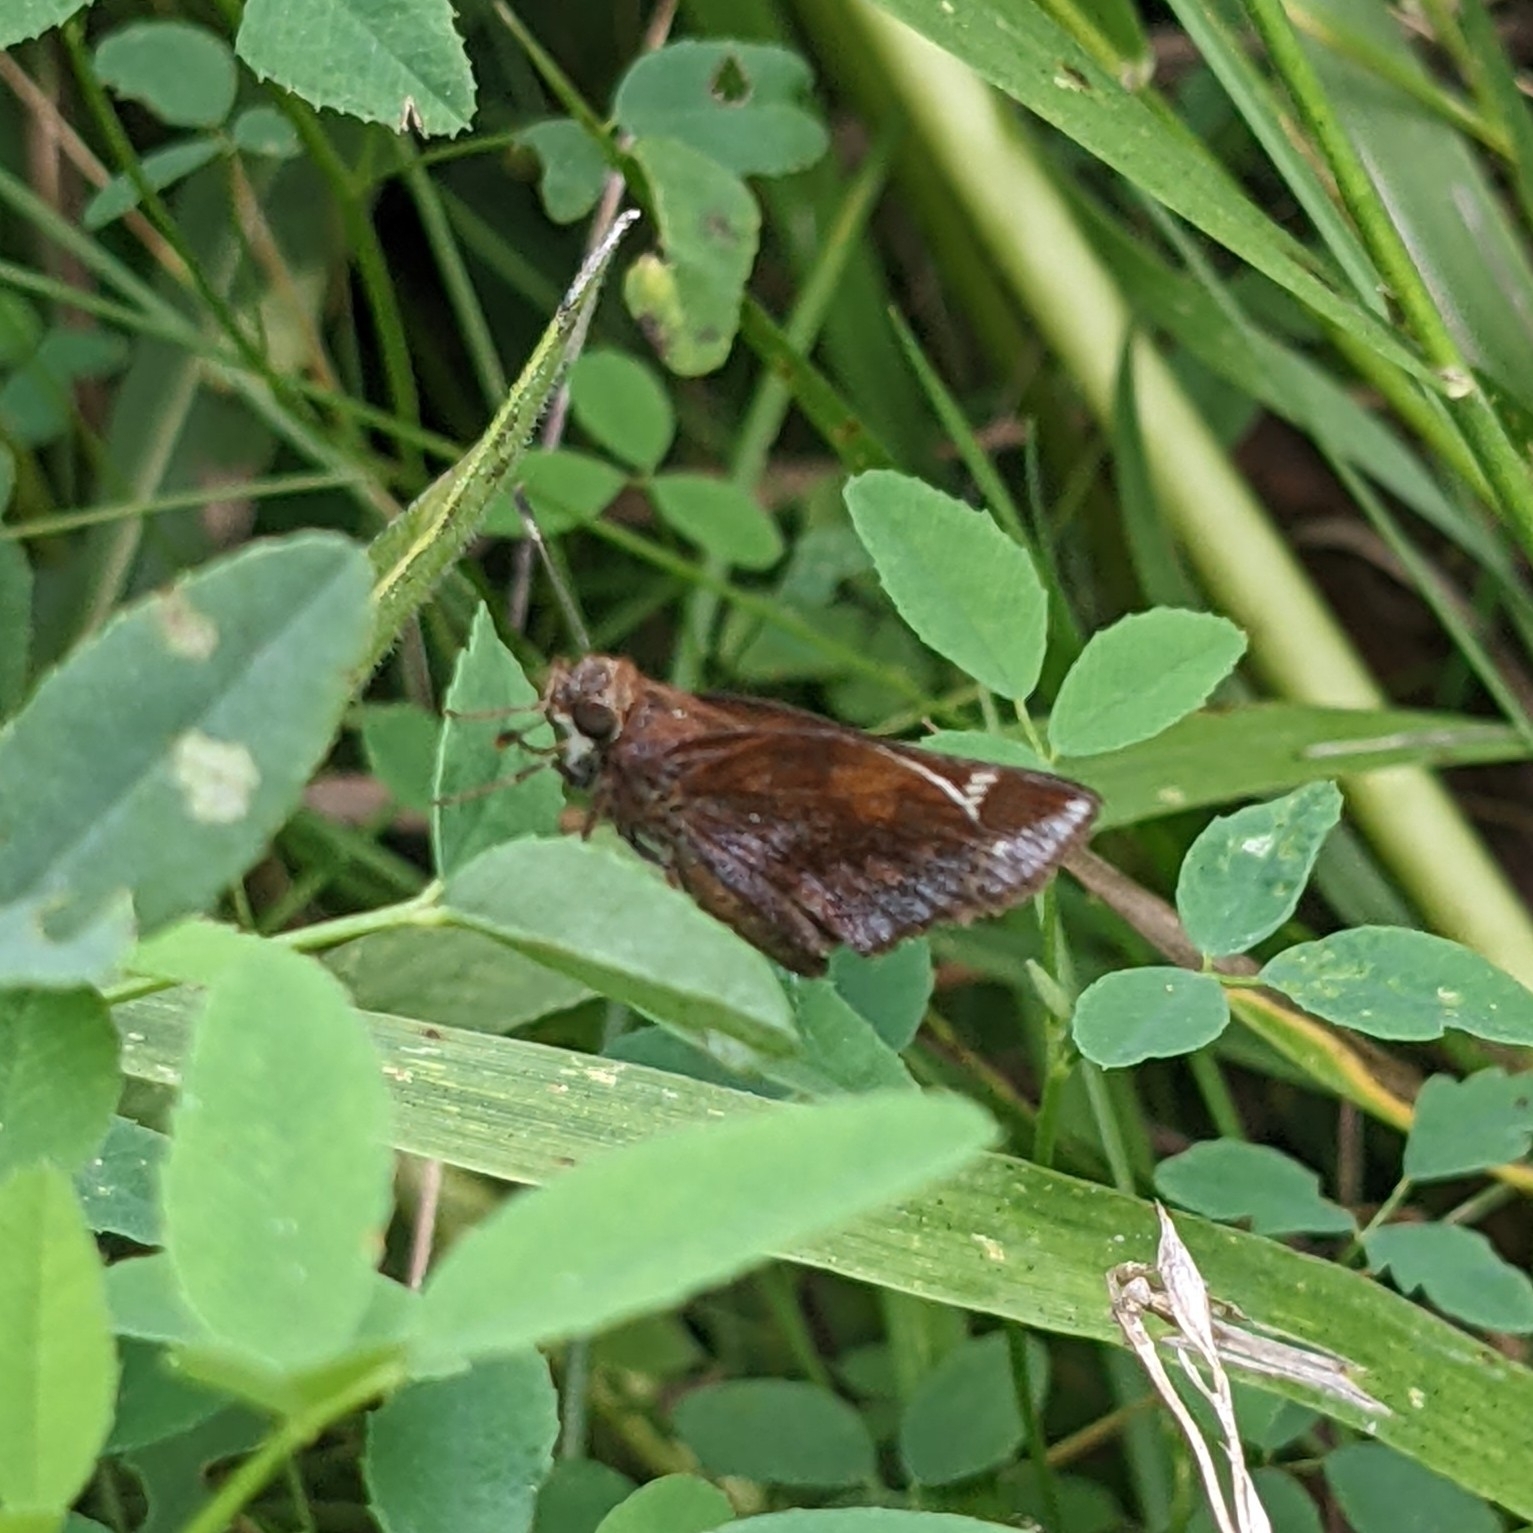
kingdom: Animalia
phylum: Arthropoda
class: Insecta
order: Lepidoptera
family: Hesperiidae
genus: Lon
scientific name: Lon zabulon
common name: Zabulon skipper
